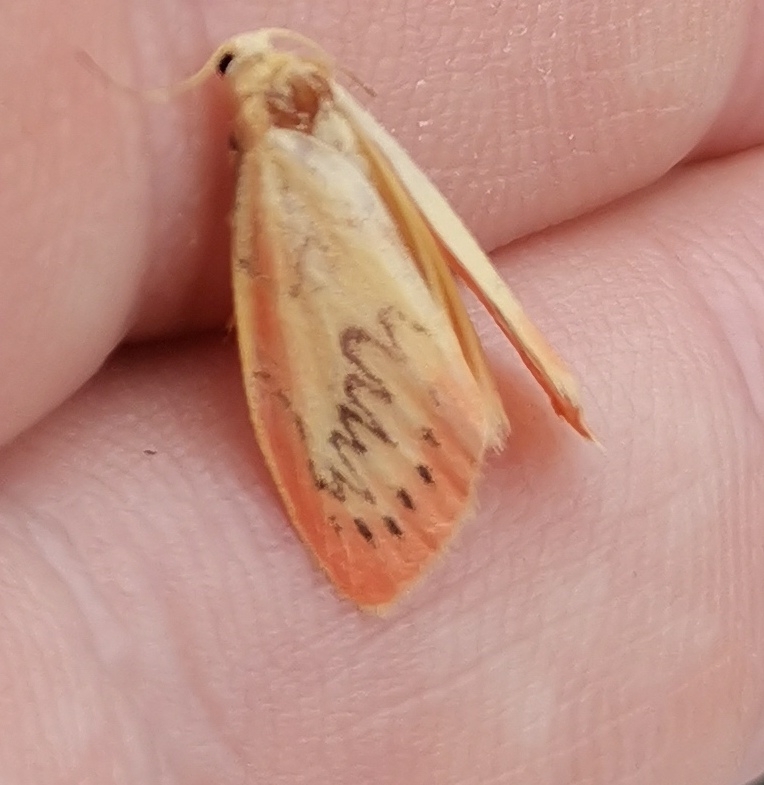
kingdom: Animalia
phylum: Arthropoda
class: Insecta
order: Lepidoptera
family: Erebidae
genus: Miltochrista
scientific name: Miltochrista miniata
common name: Rosy footman
